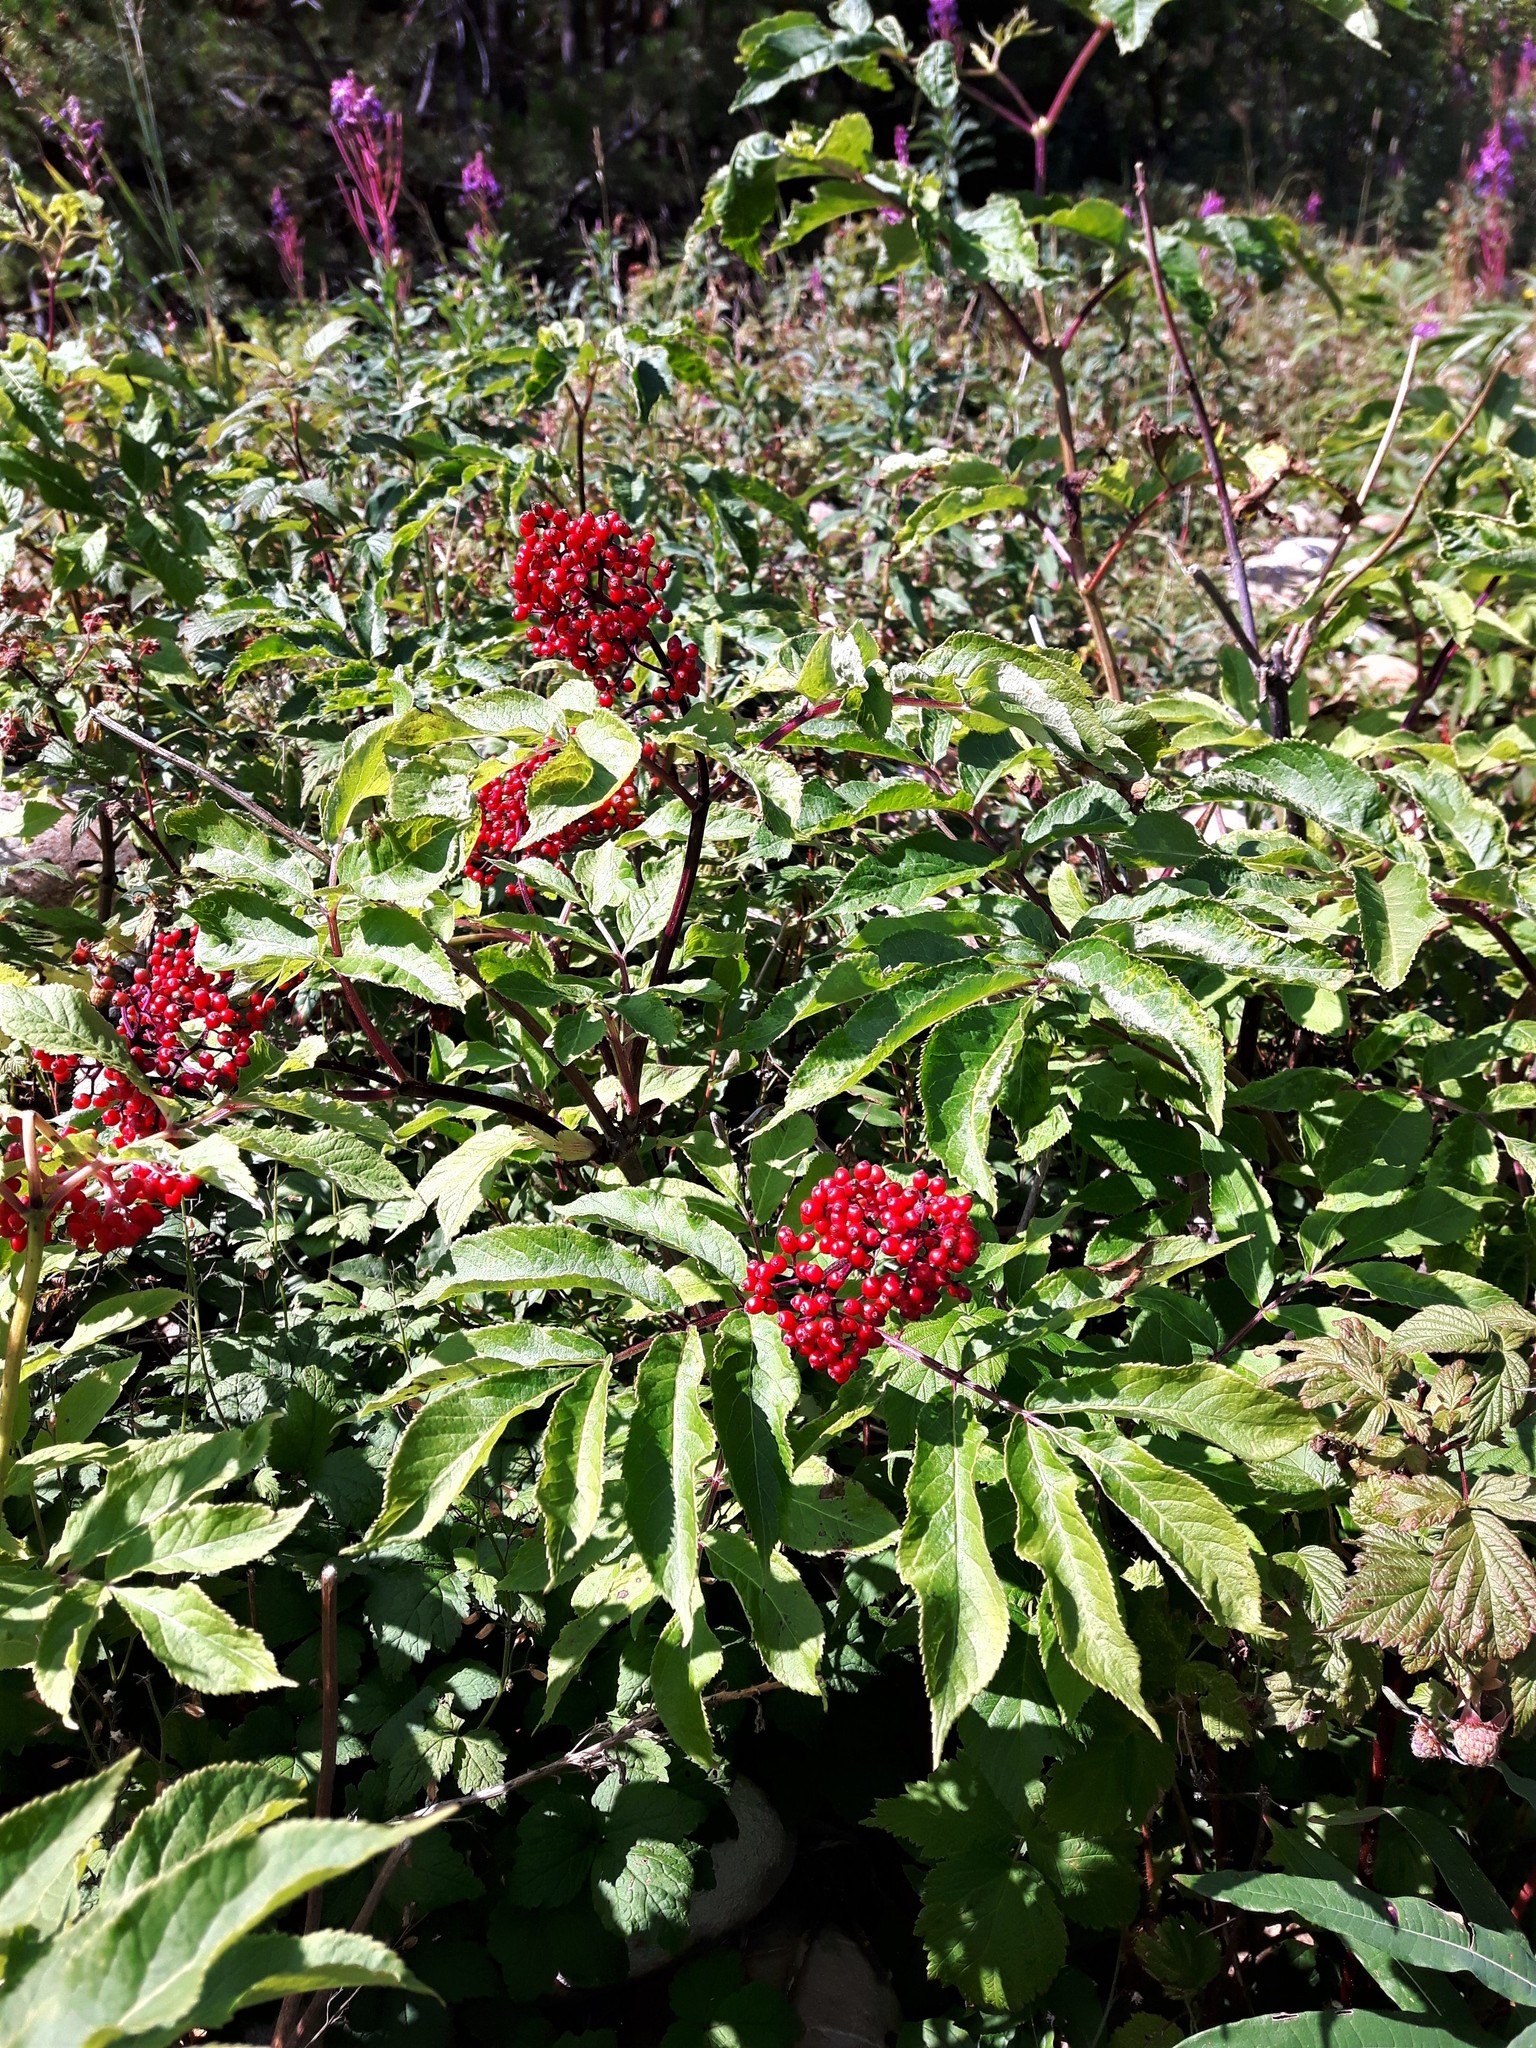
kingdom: Plantae
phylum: Tracheophyta
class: Magnoliopsida
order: Dipsacales
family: Viburnaceae
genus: Sambucus
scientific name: Sambucus racemosa
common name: Red-berried elder
